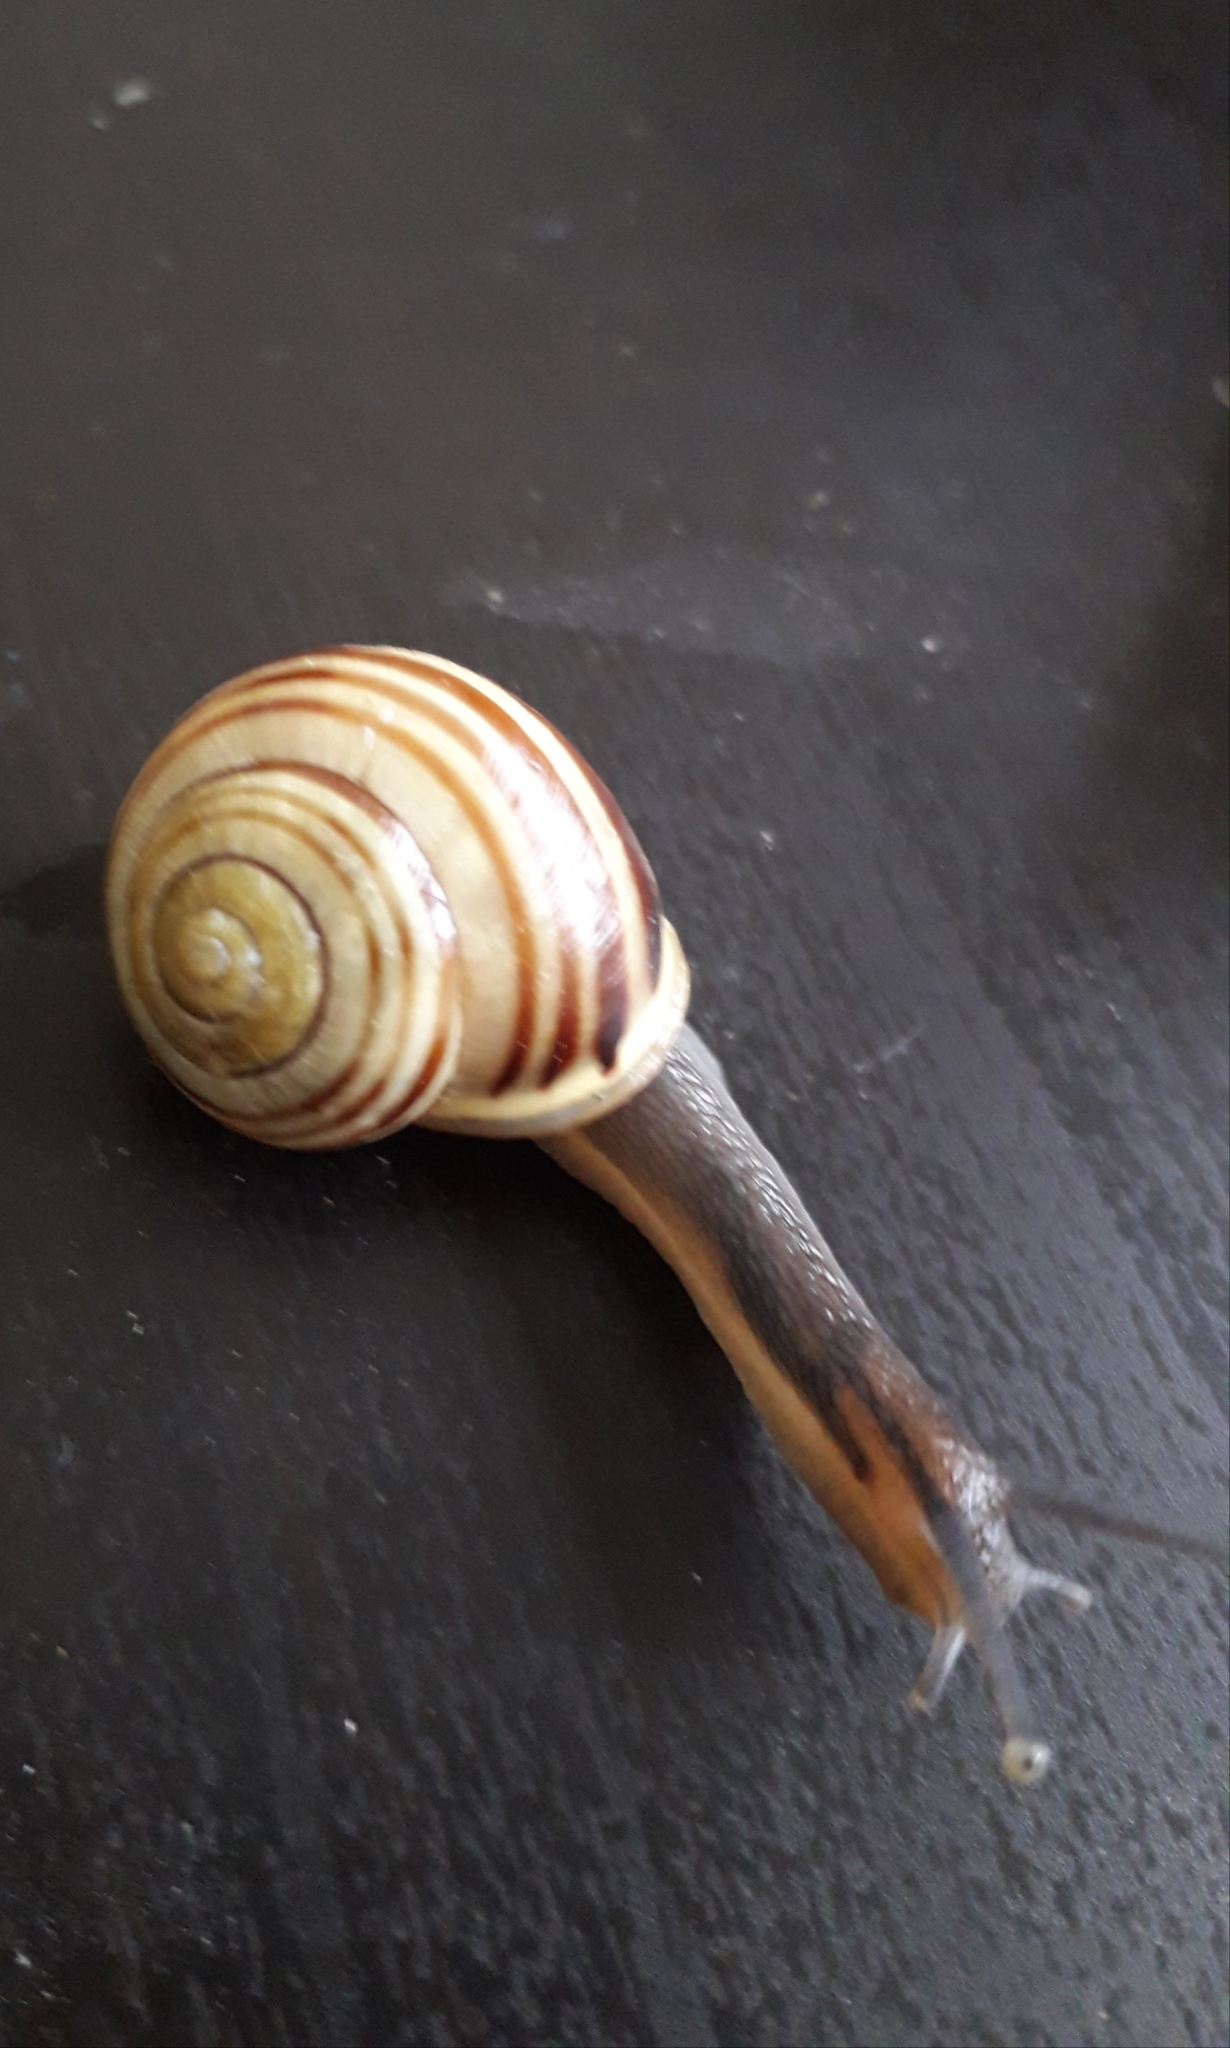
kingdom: Animalia
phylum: Mollusca
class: Gastropoda
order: Stylommatophora
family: Helicidae
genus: Cepaea
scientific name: Cepaea hortensis
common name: White-lip gardensnail
